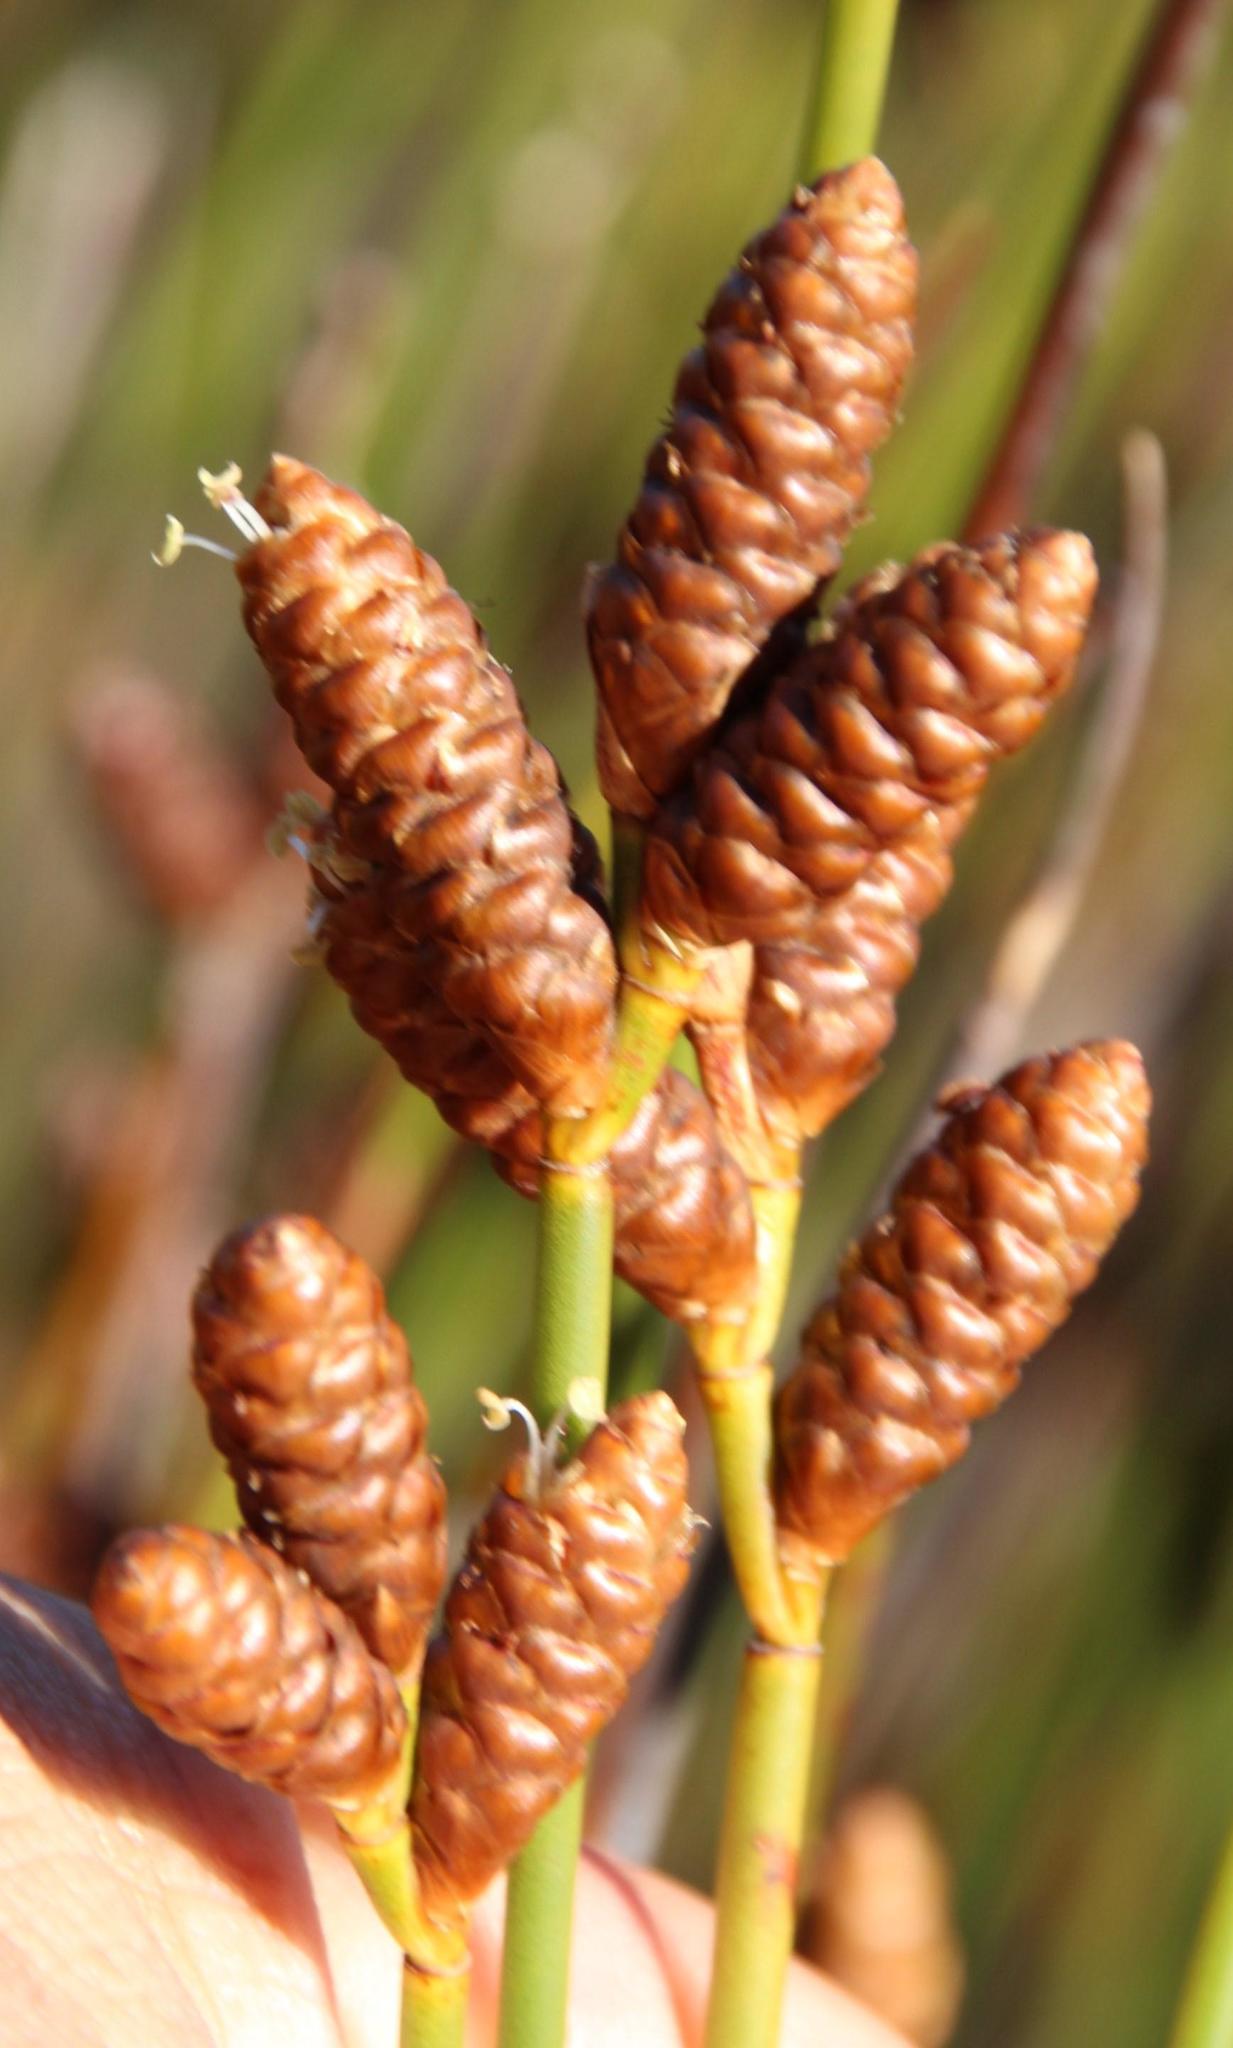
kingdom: Plantae
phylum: Tracheophyta
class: Liliopsida
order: Poales
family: Restionaceae
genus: Nevillea
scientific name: Nevillea obtusissimus
